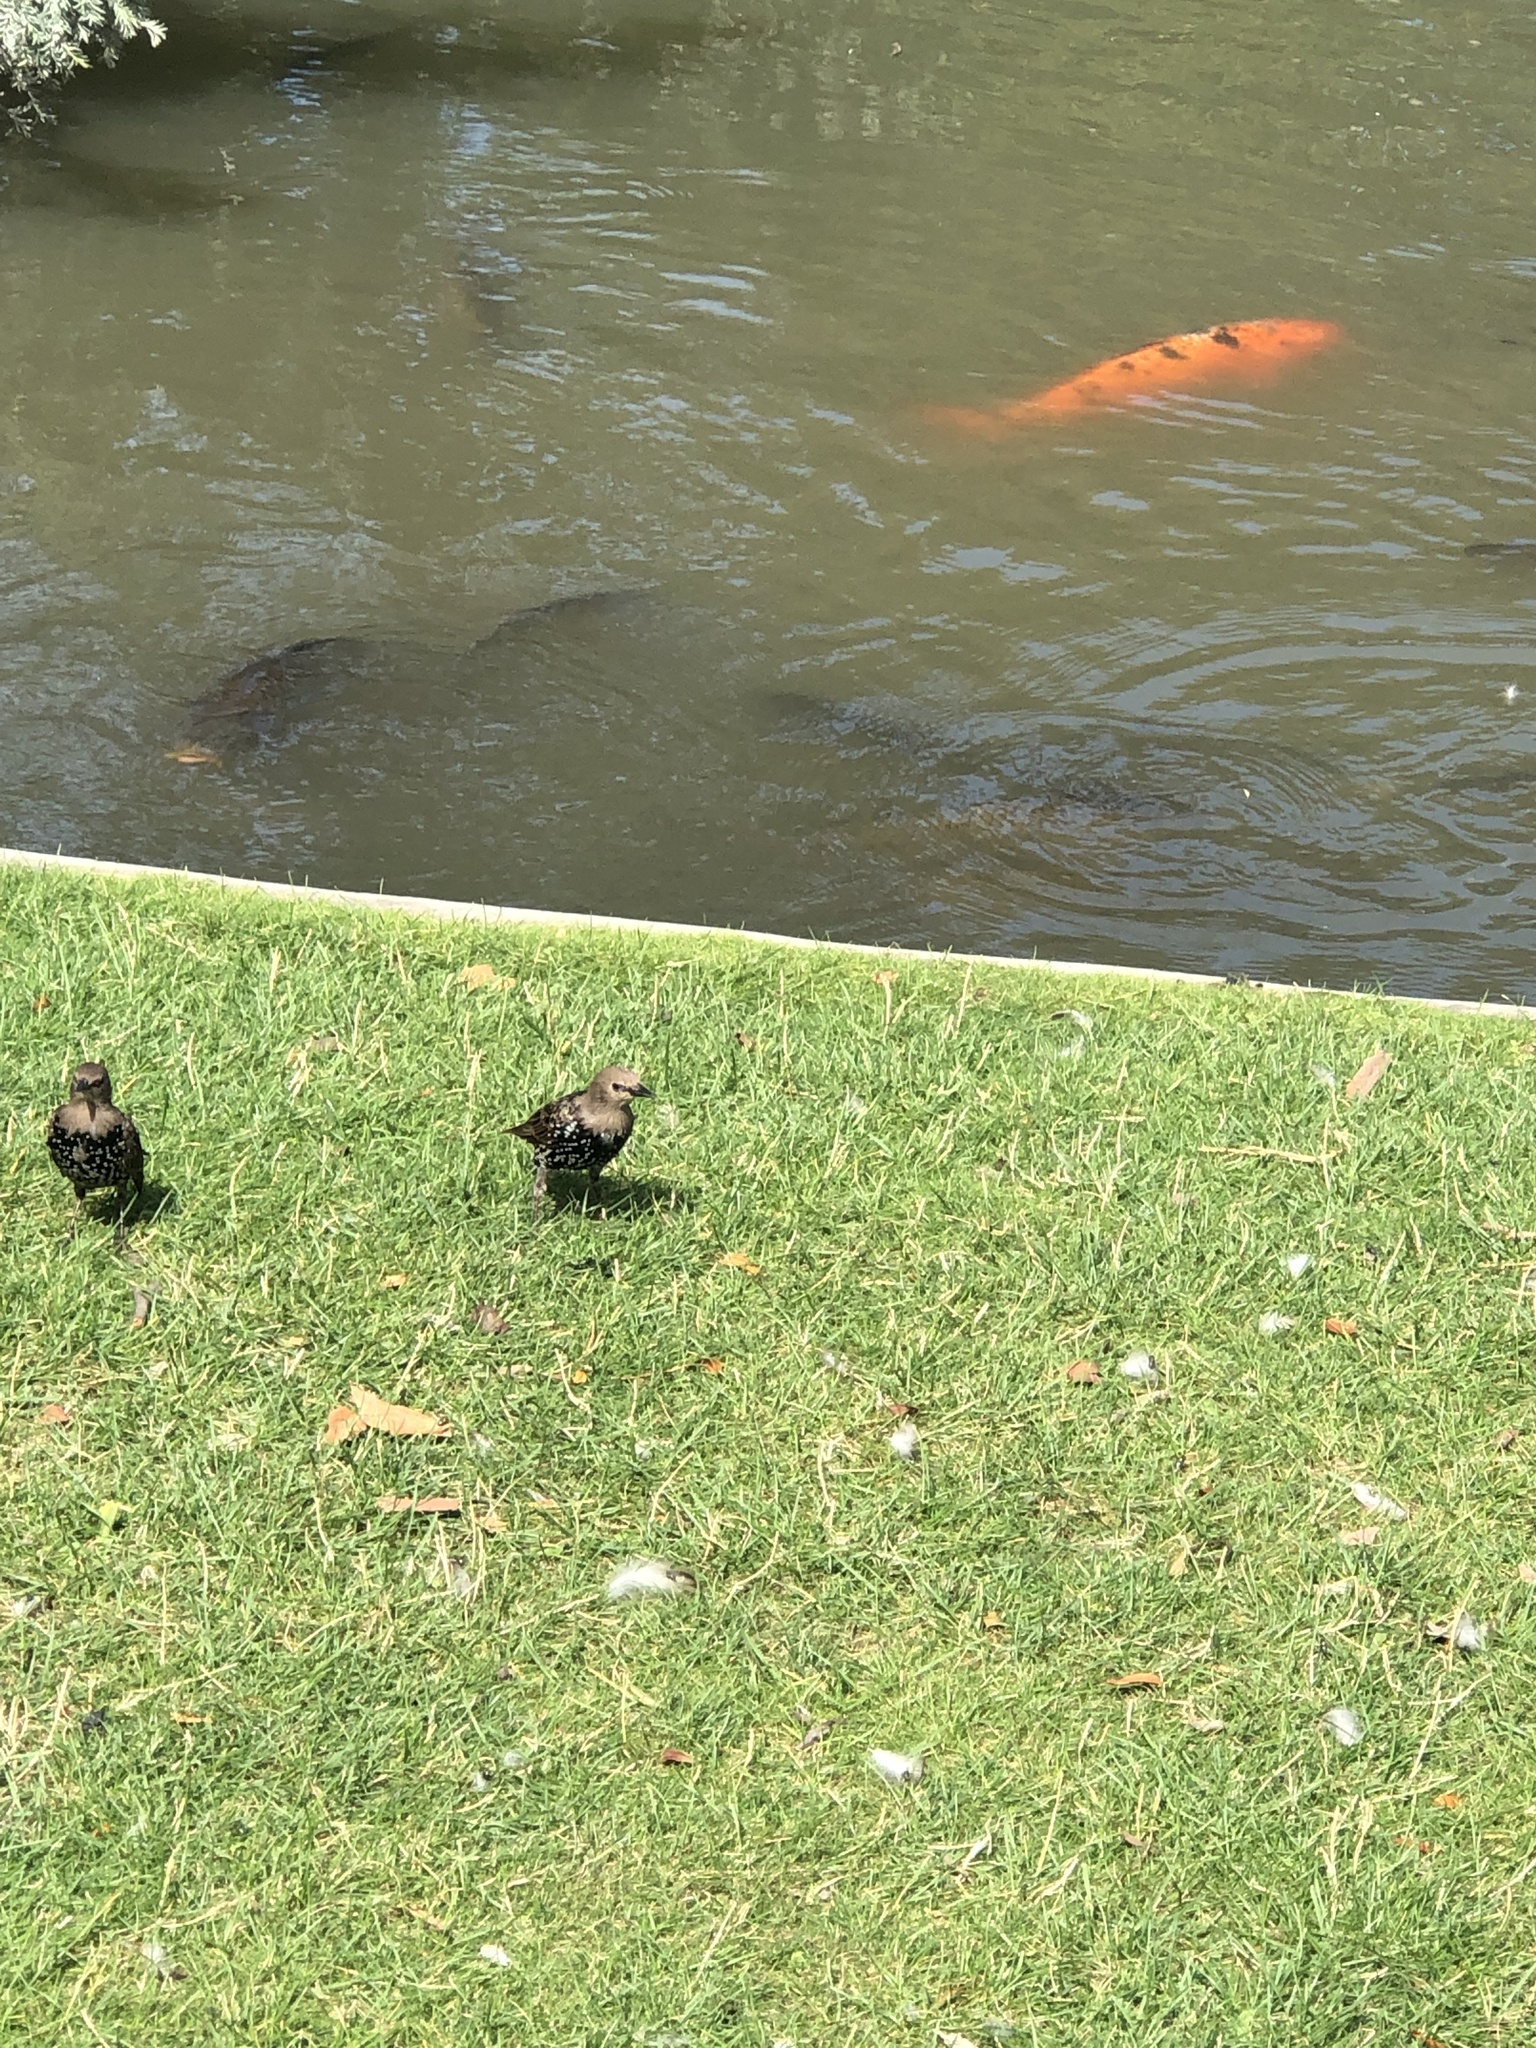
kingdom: Animalia
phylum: Chordata
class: Aves
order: Passeriformes
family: Sturnidae
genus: Sturnus
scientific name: Sturnus vulgaris
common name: Common starling
